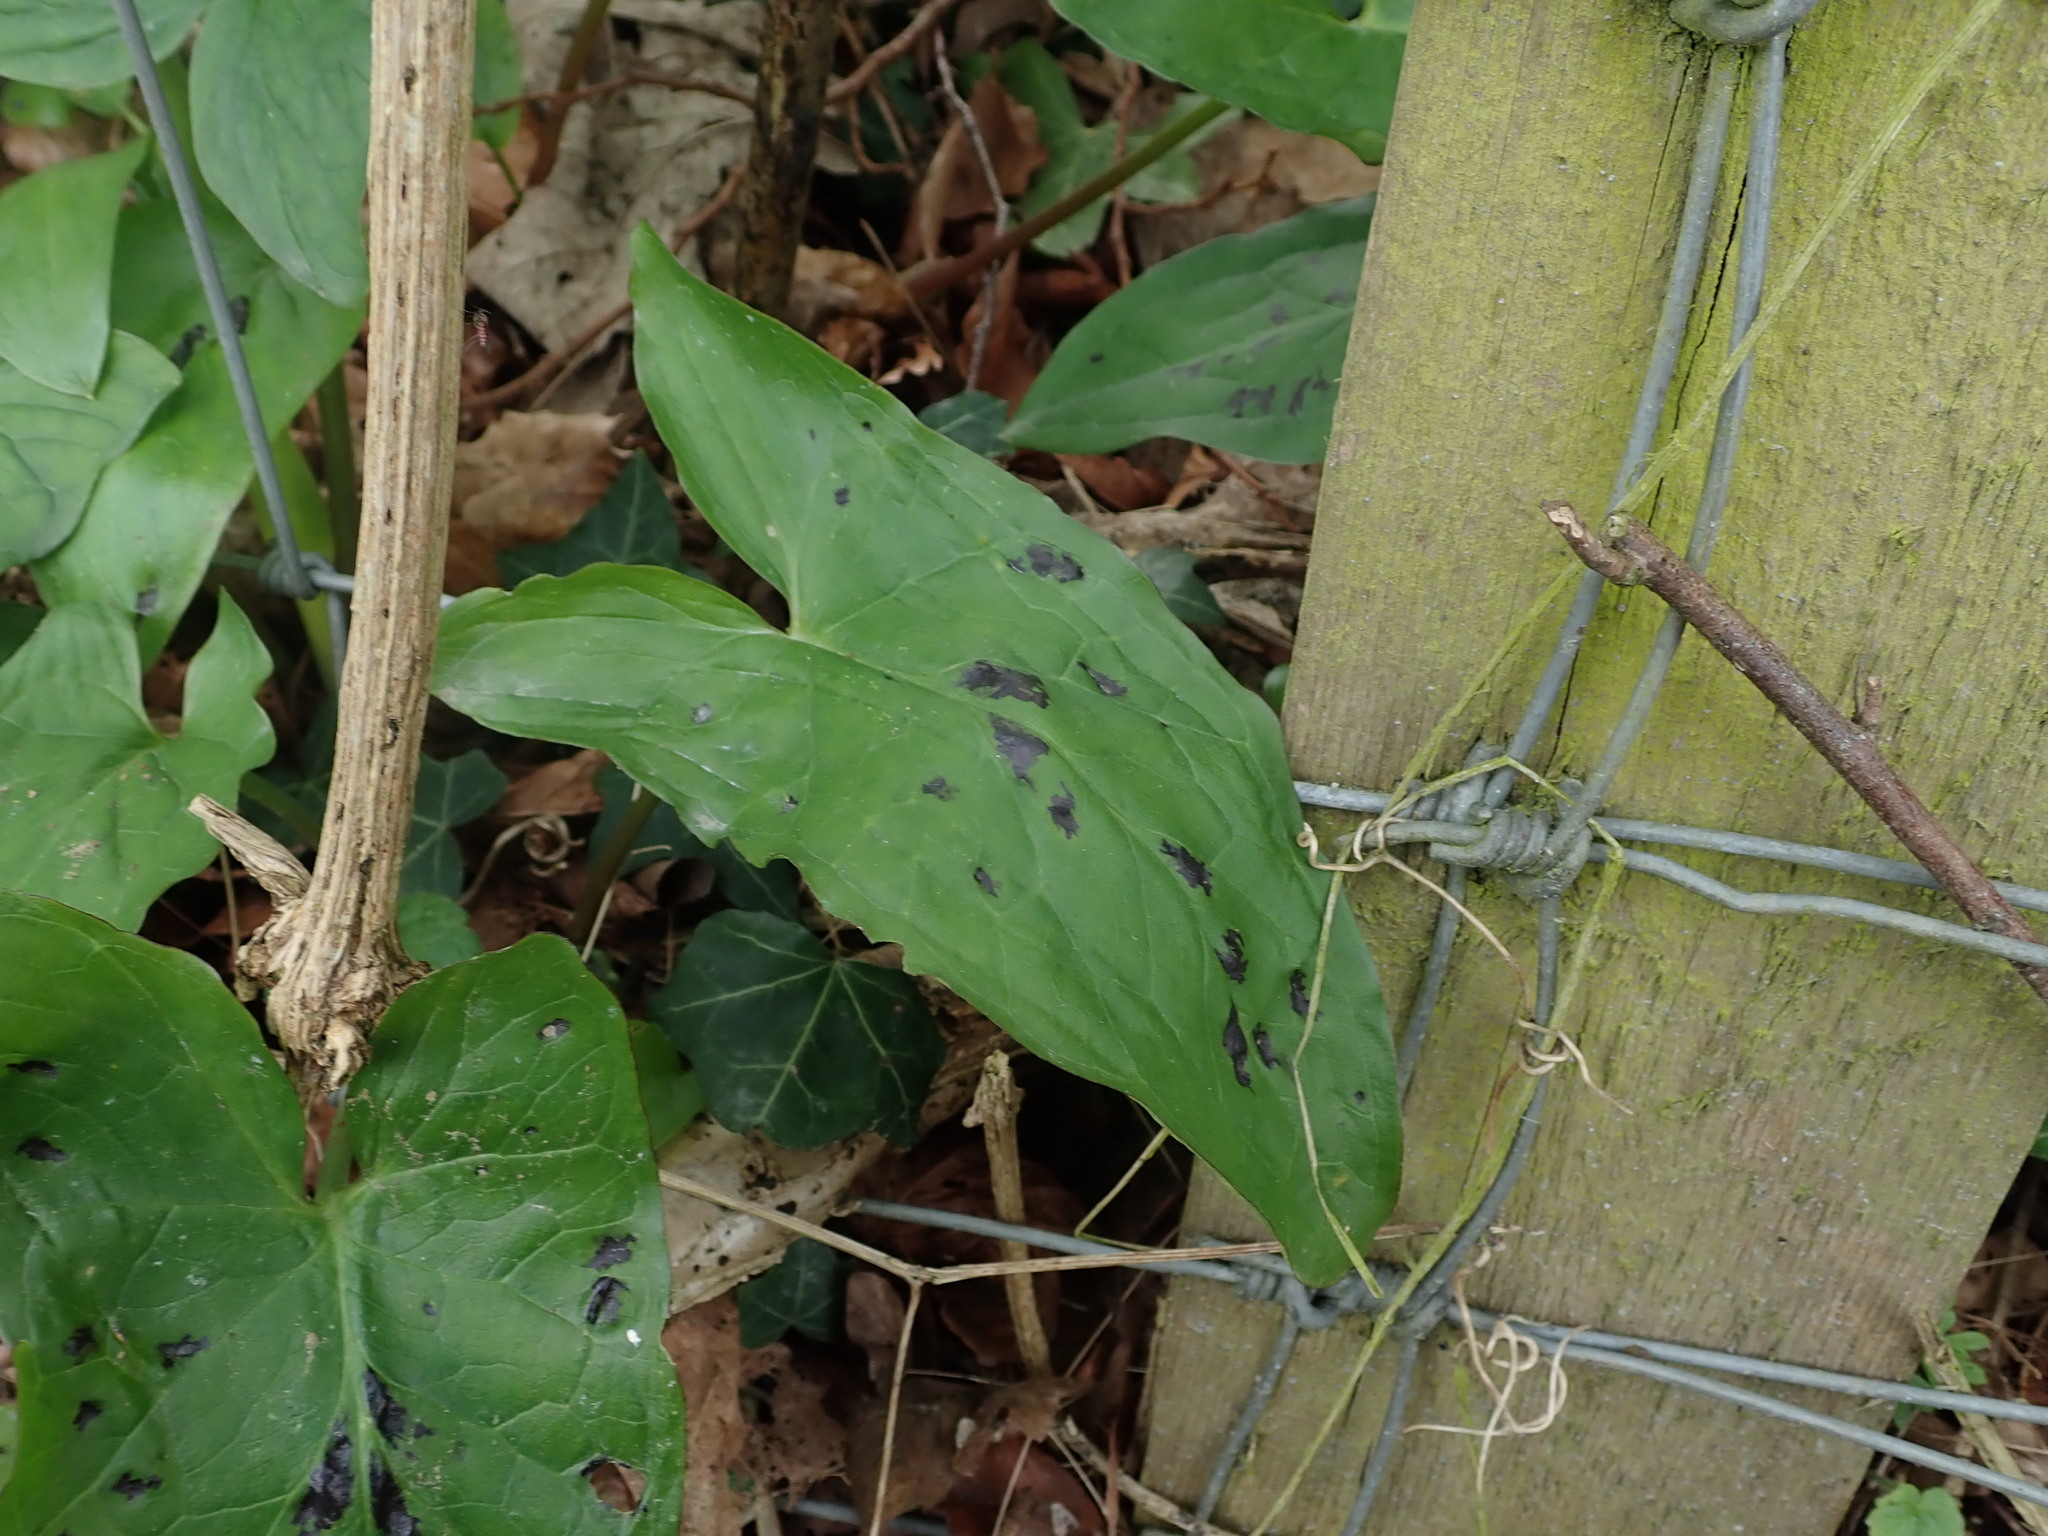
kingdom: Plantae
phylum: Tracheophyta
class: Liliopsida
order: Alismatales
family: Araceae
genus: Arum
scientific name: Arum maculatum
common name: Lords-and-ladies
